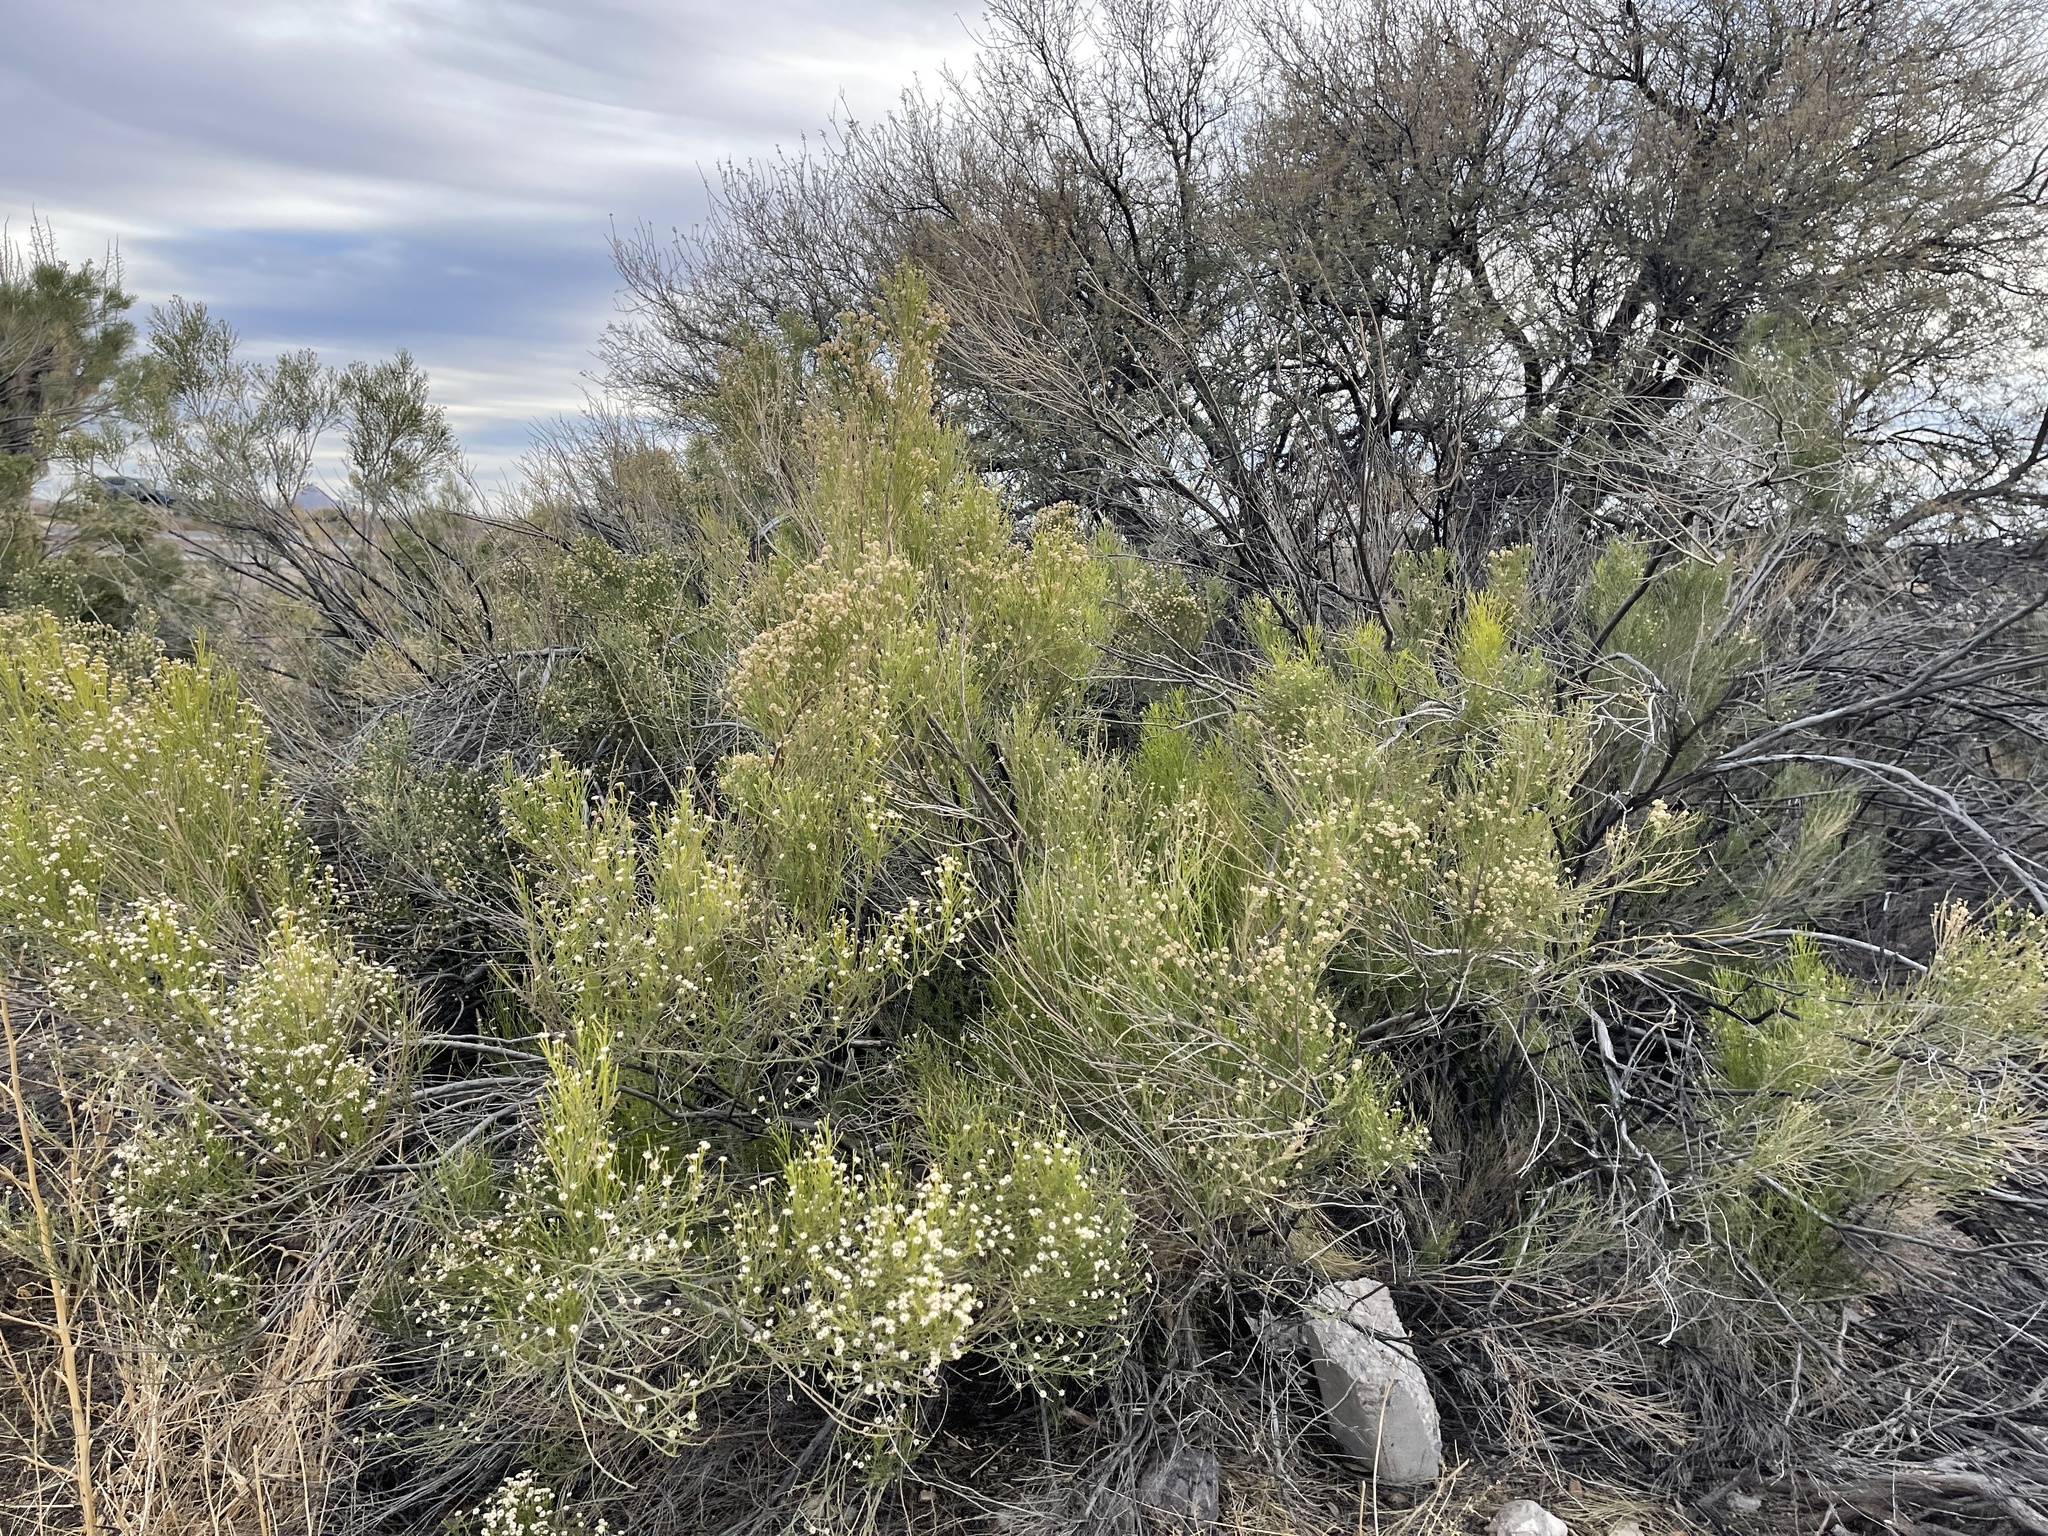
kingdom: Plantae
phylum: Tracheophyta
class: Magnoliopsida
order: Asterales
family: Asteraceae
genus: Baccharis
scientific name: Baccharis sarothroides
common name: Desert-broom
